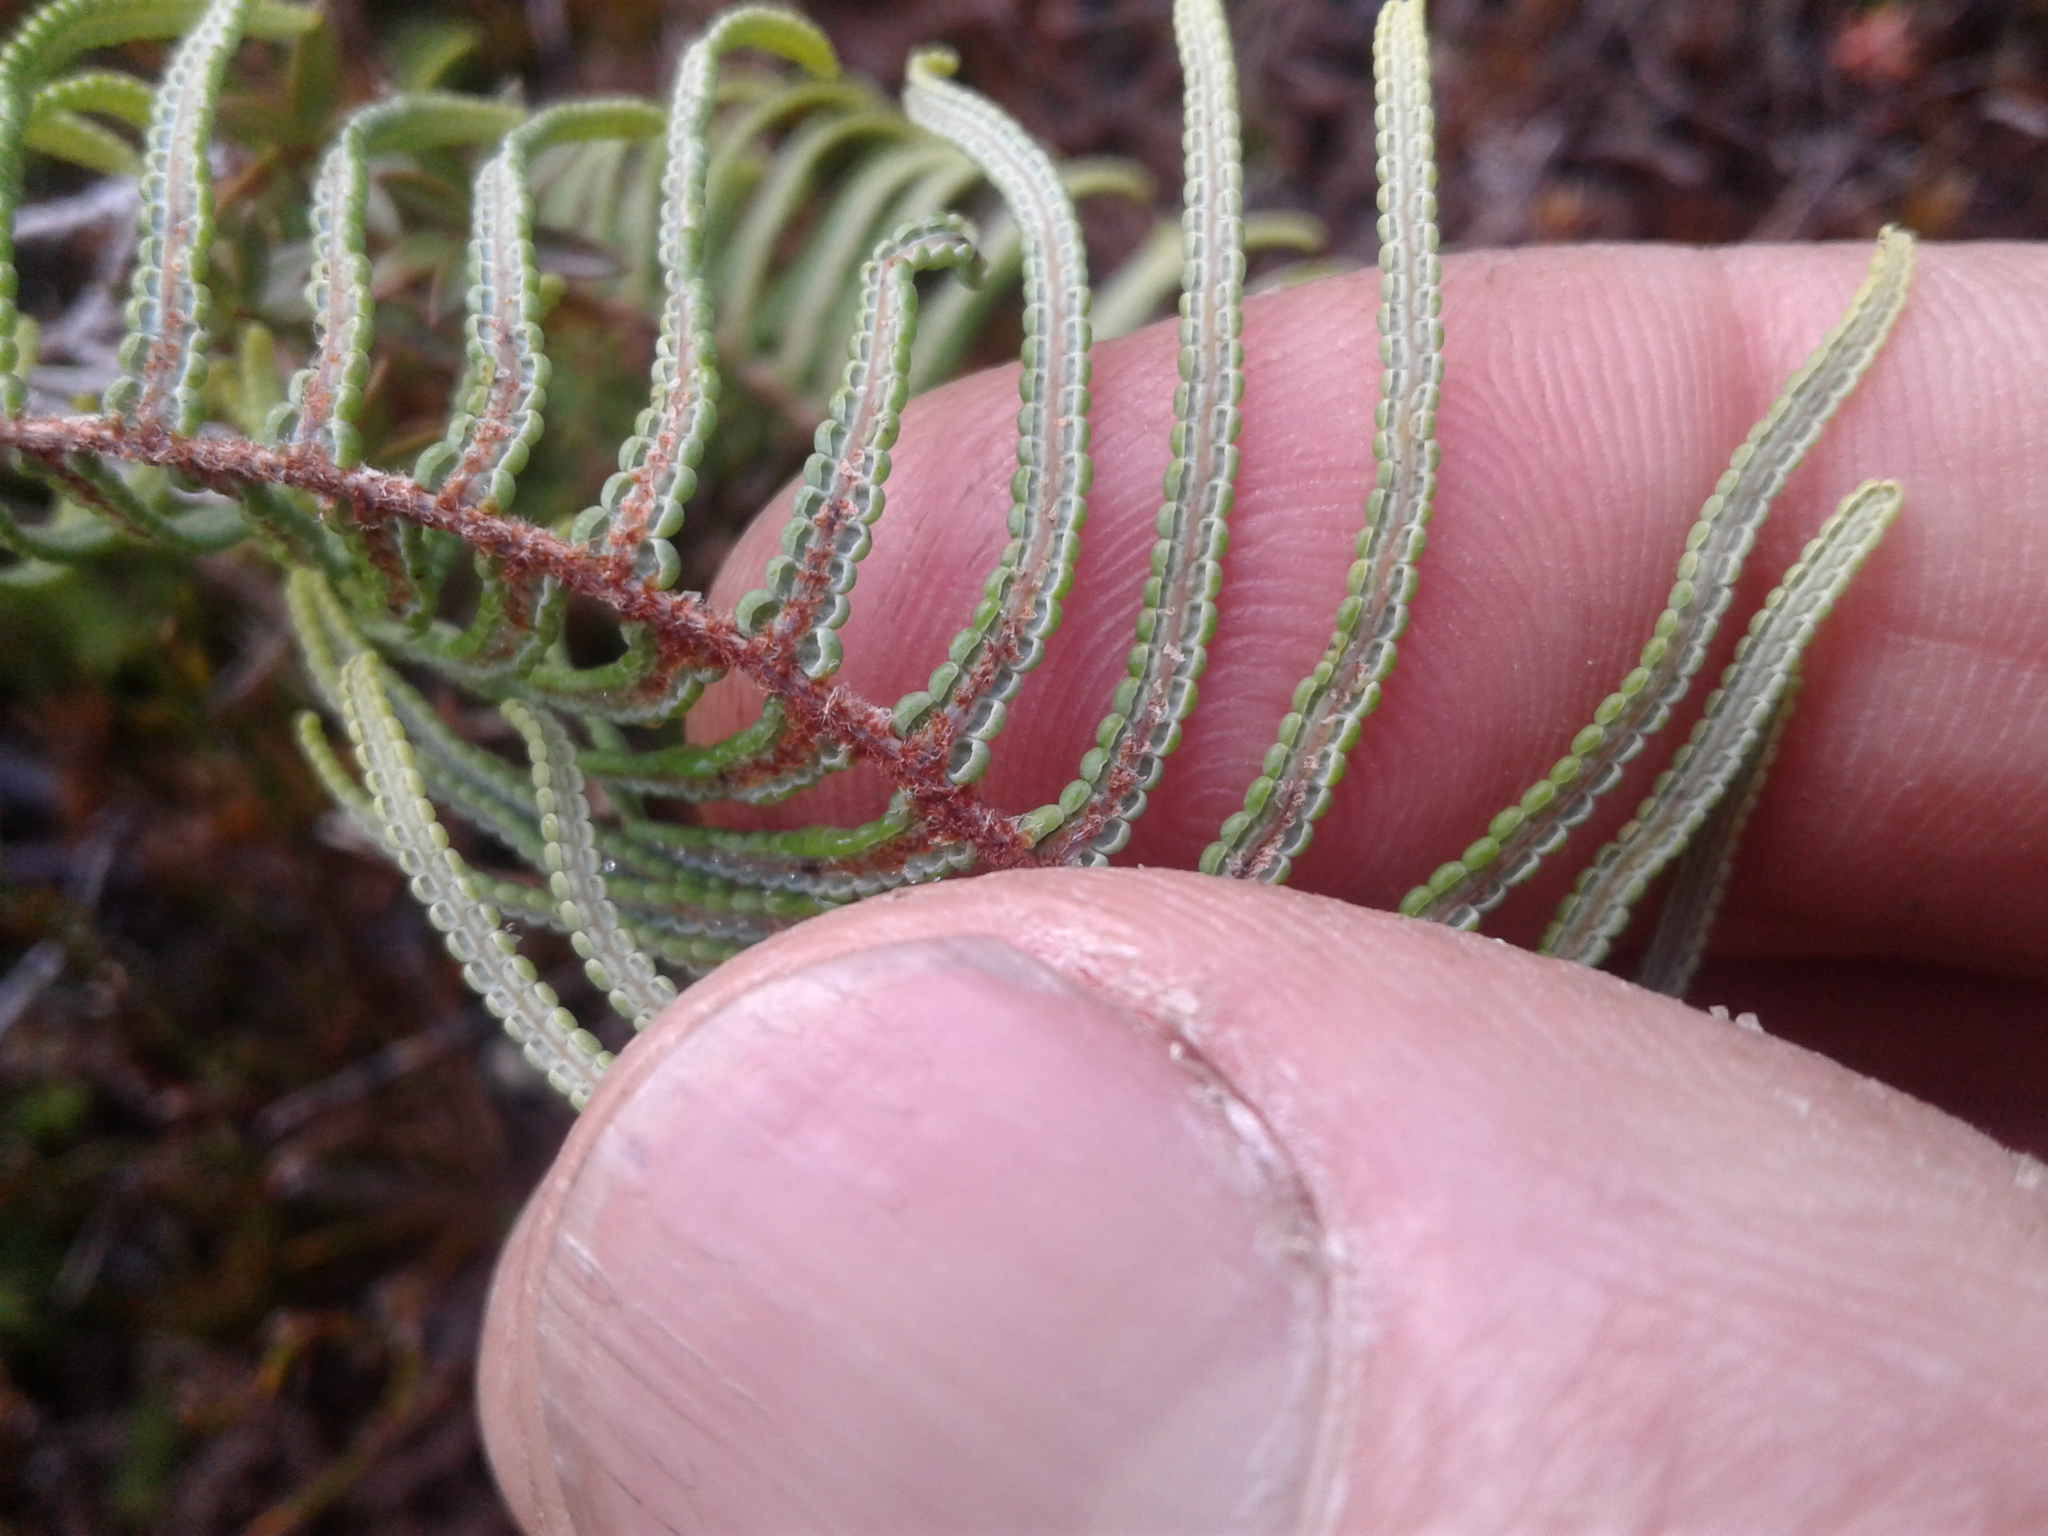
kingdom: Plantae
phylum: Tracheophyta
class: Polypodiopsida
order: Gleicheniales
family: Gleicheniaceae
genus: Gleichenia
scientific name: Gleichenia dicarpa
